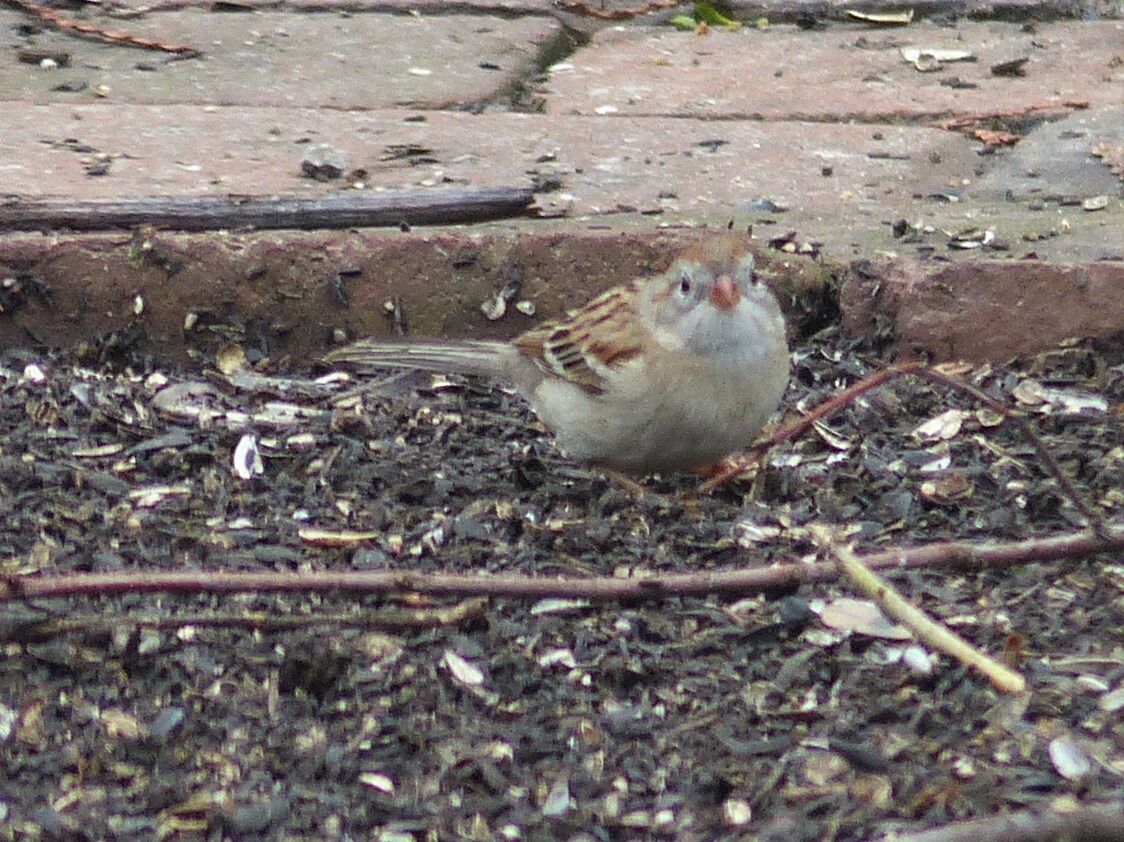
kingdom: Animalia
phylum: Chordata
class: Aves
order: Passeriformes
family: Passerellidae
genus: Spizella
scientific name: Spizella pusilla
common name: Field sparrow
